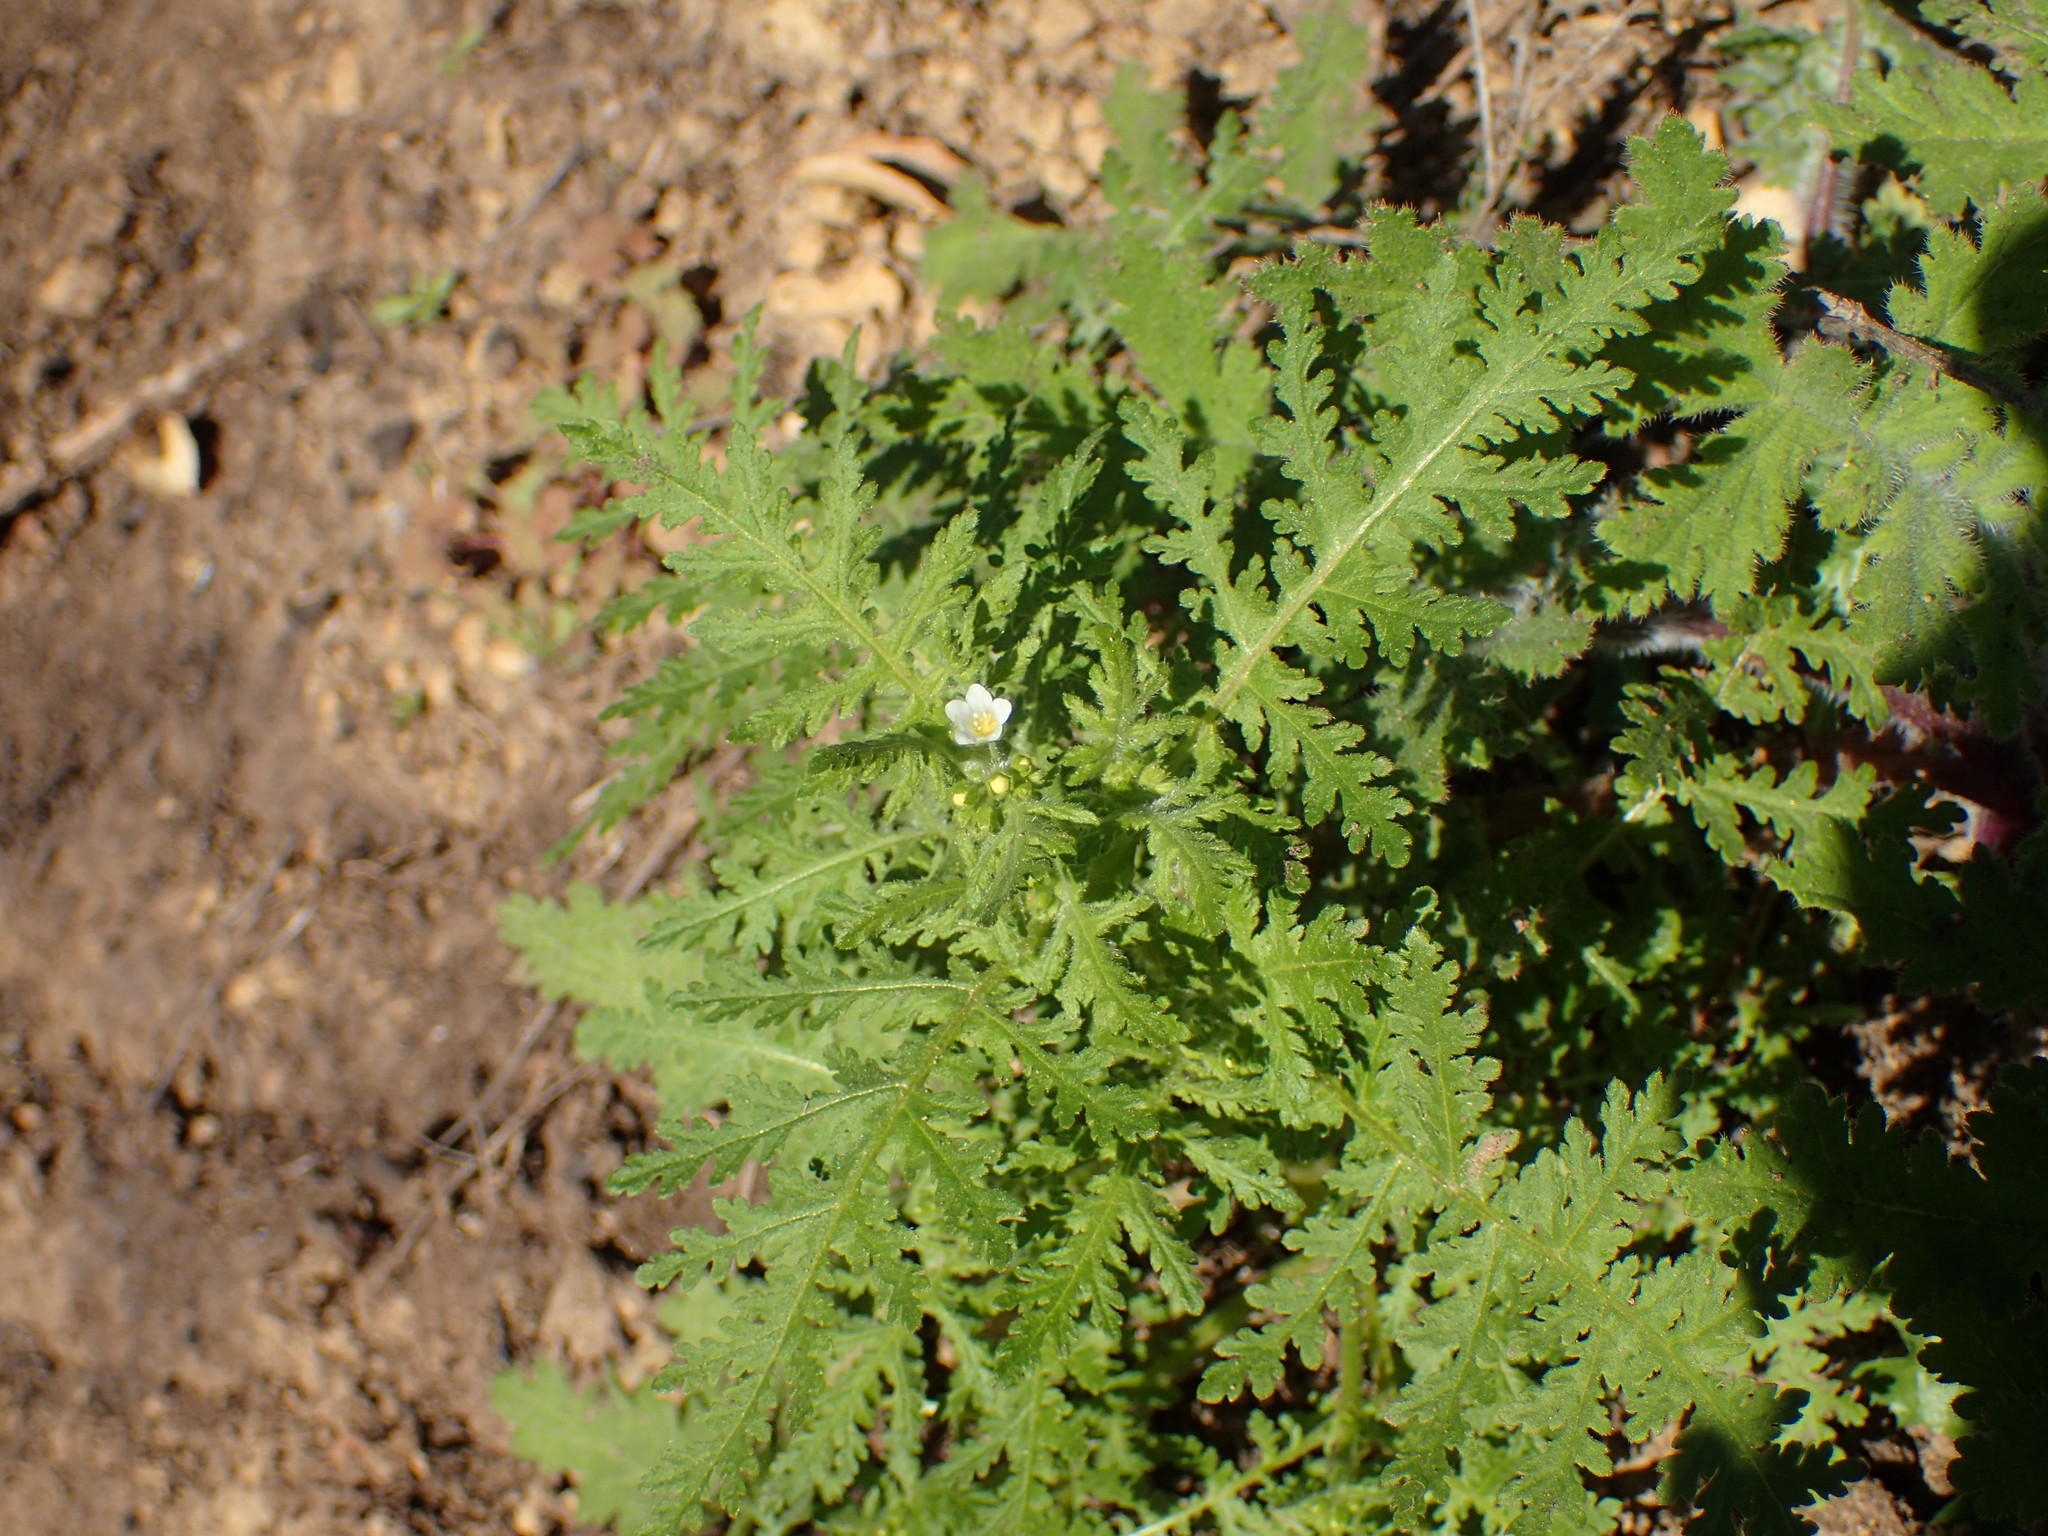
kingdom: Plantae
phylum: Tracheophyta
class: Magnoliopsida
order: Boraginales
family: Hydrophyllaceae
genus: Eucrypta
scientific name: Eucrypta chrysanthemifolia
